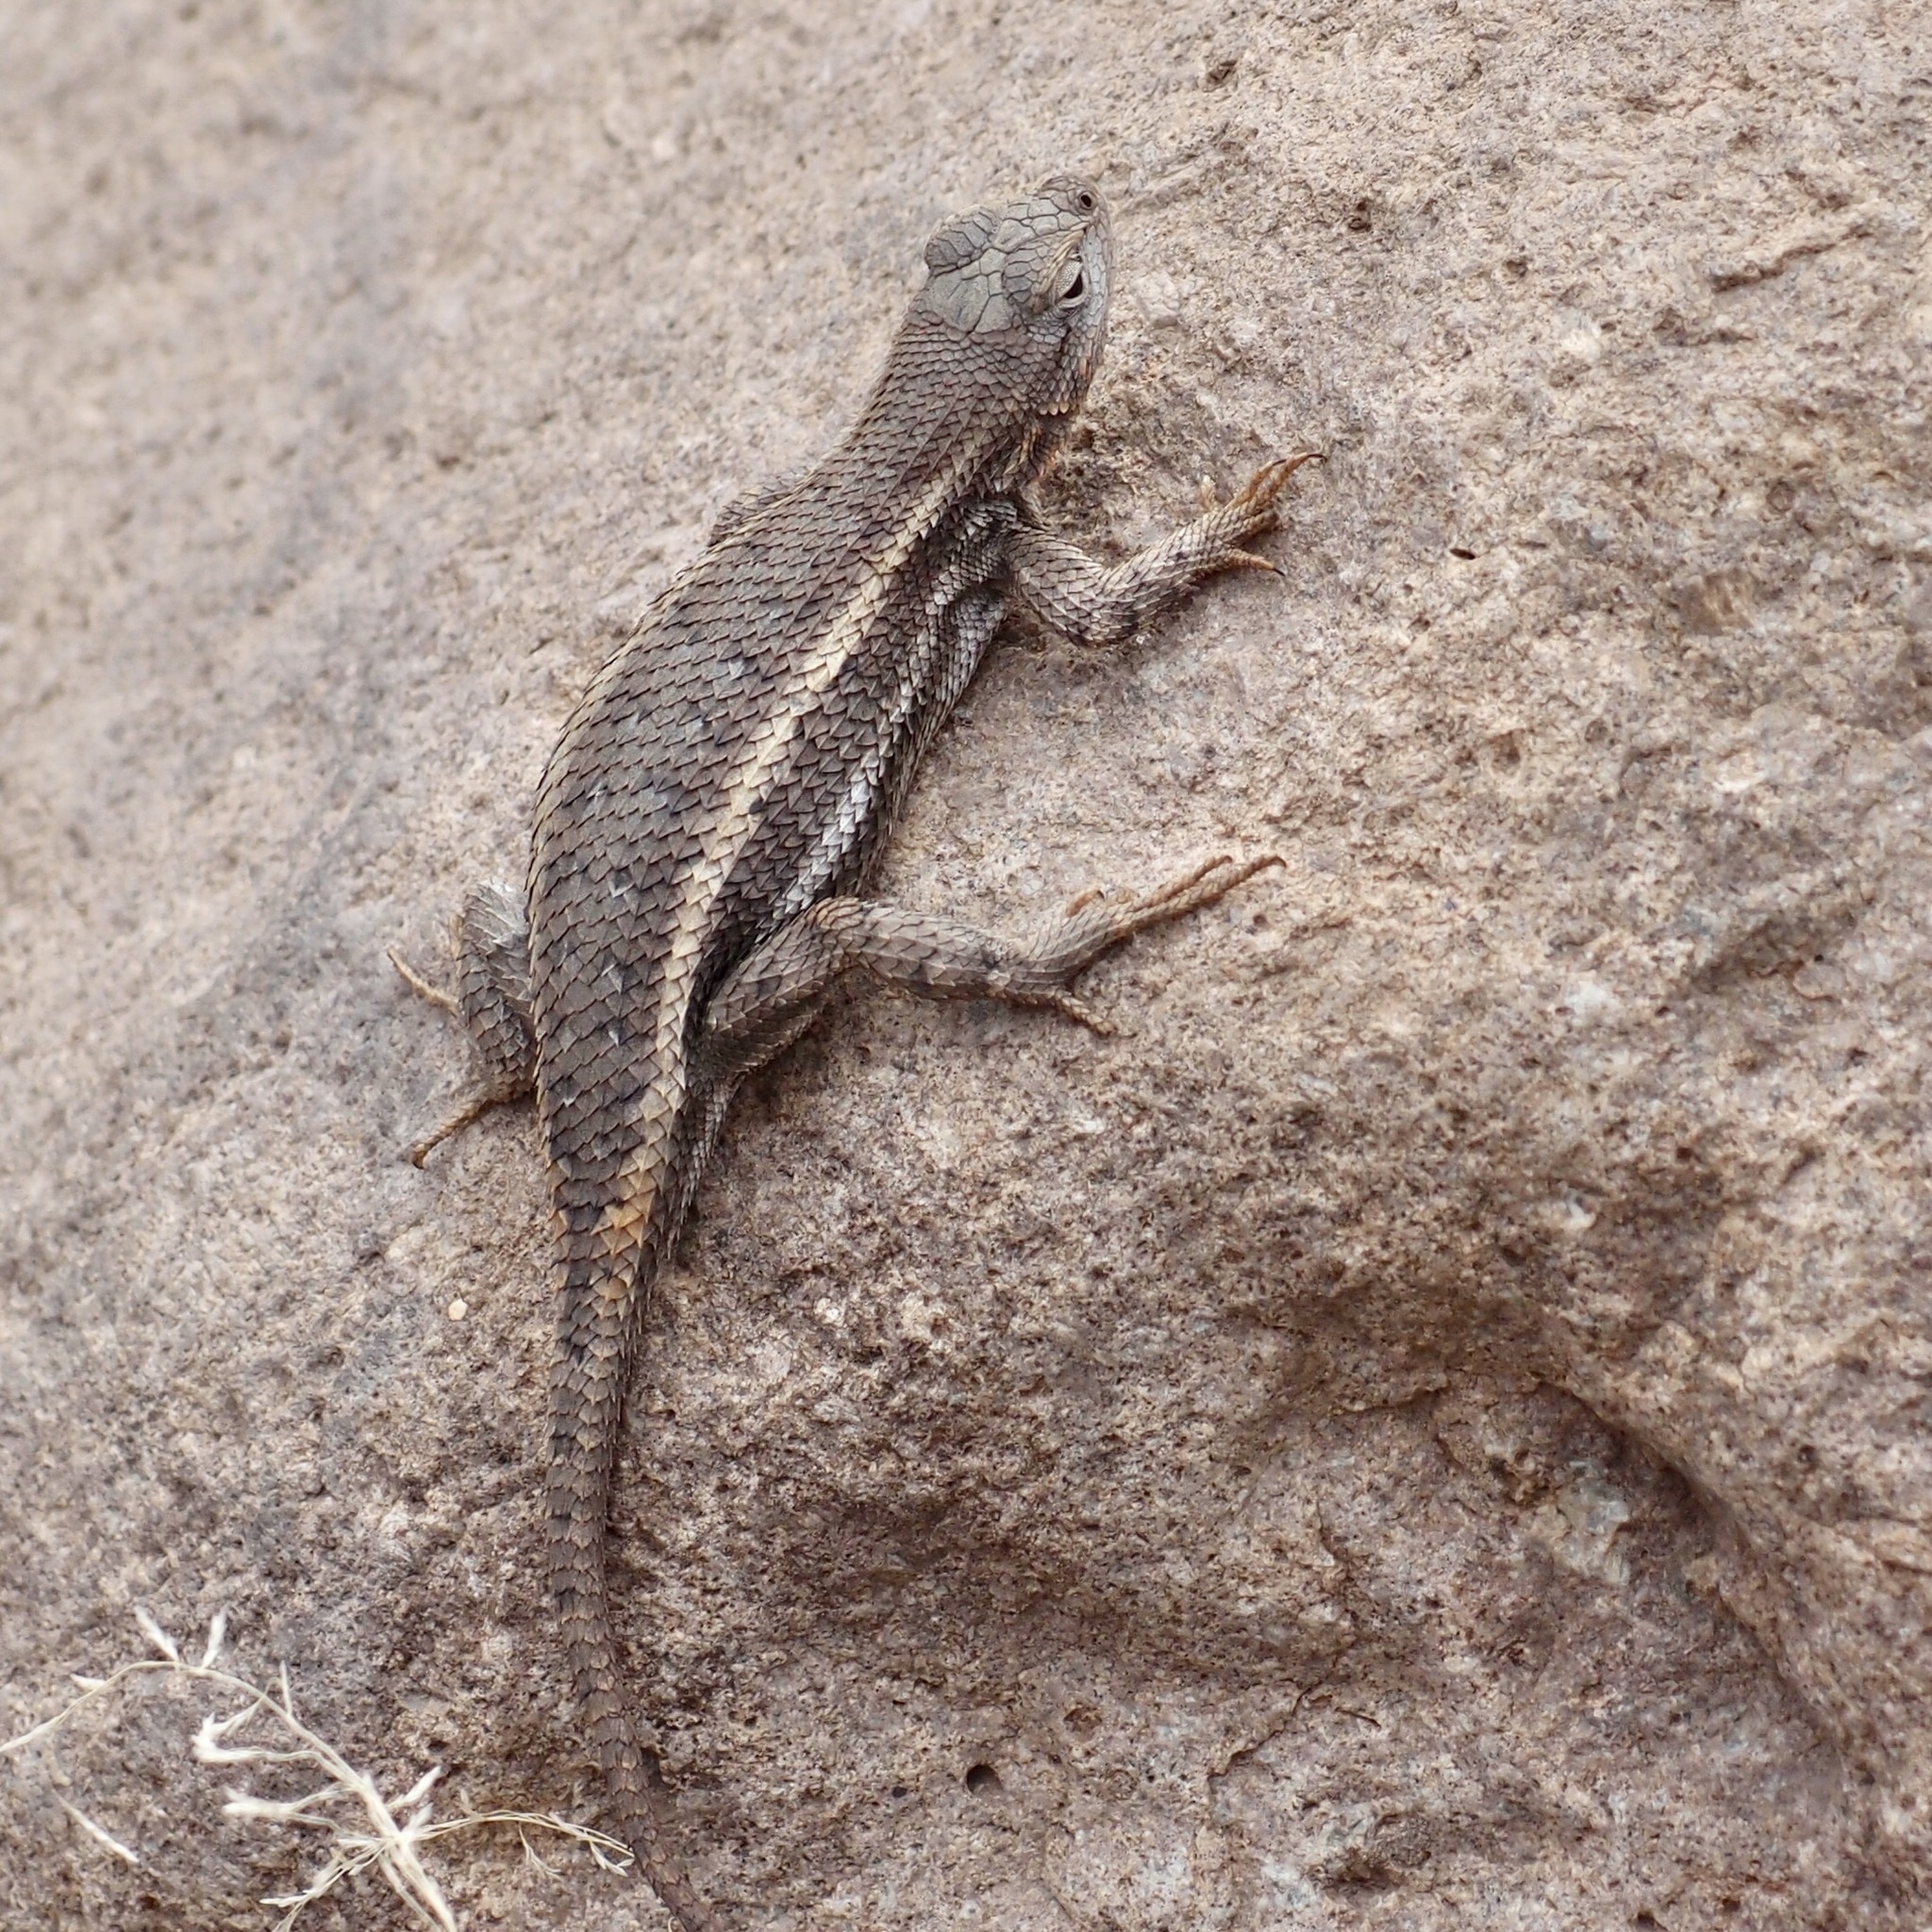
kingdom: Animalia
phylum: Chordata
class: Squamata
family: Phrynosomatidae
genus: Sceloporus
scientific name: Sceloporus virgatus
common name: Striped plateau lizard
